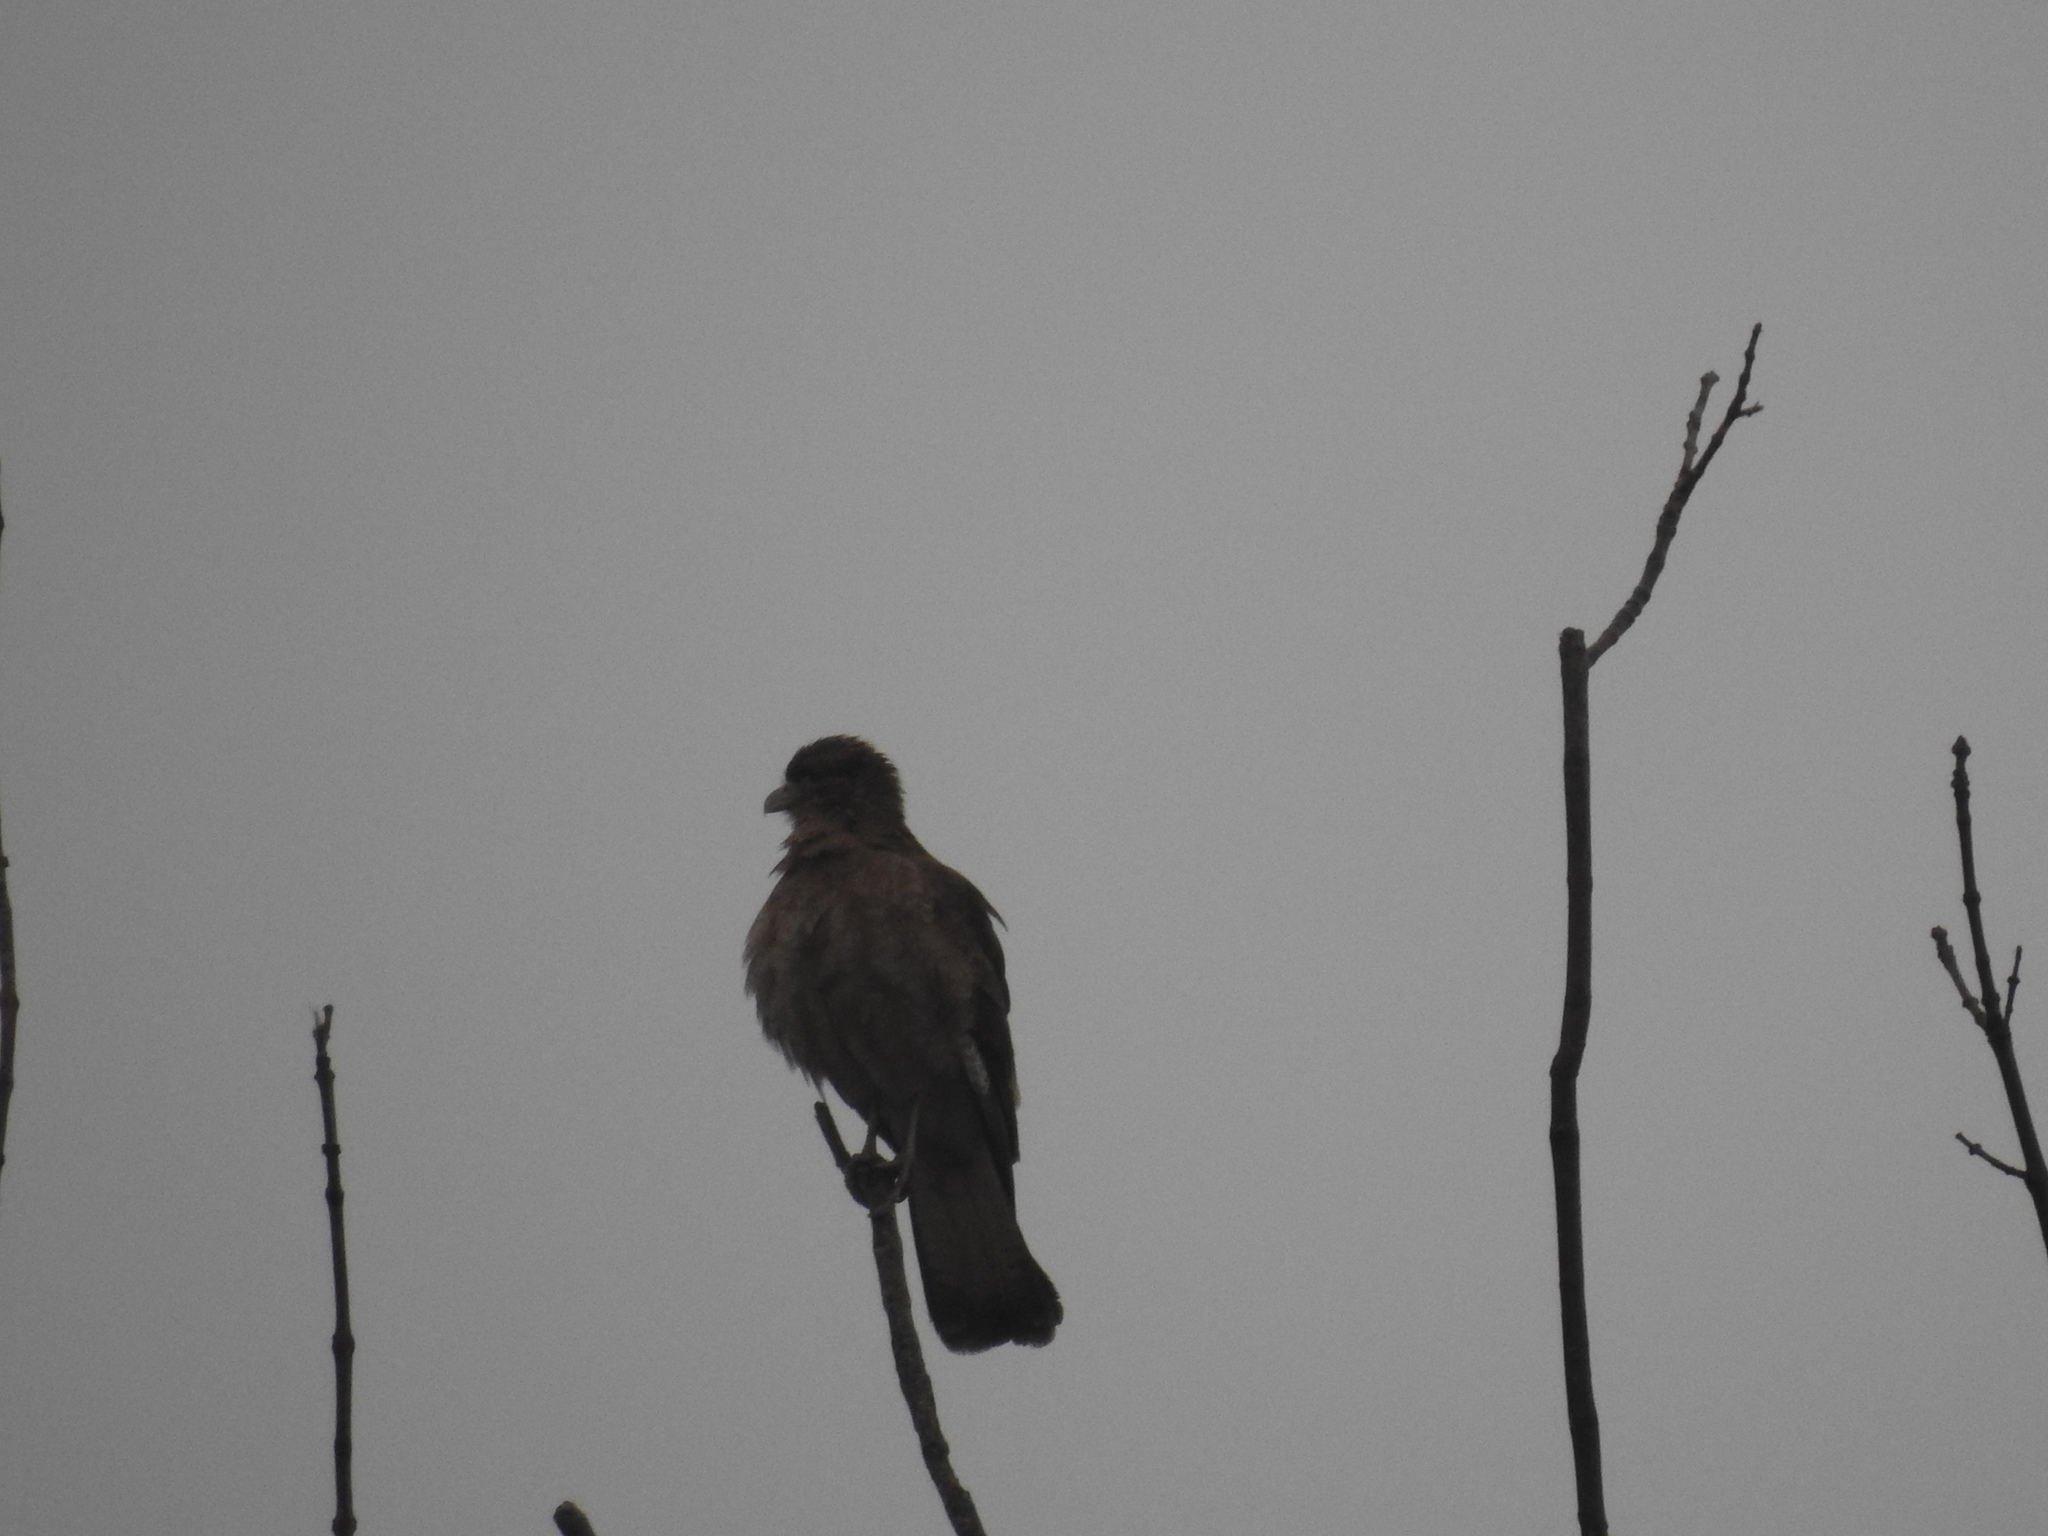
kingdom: Animalia
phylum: Chordata
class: Aves
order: Falconiformes
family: Falconidae
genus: Daptrius
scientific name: Daptrius
